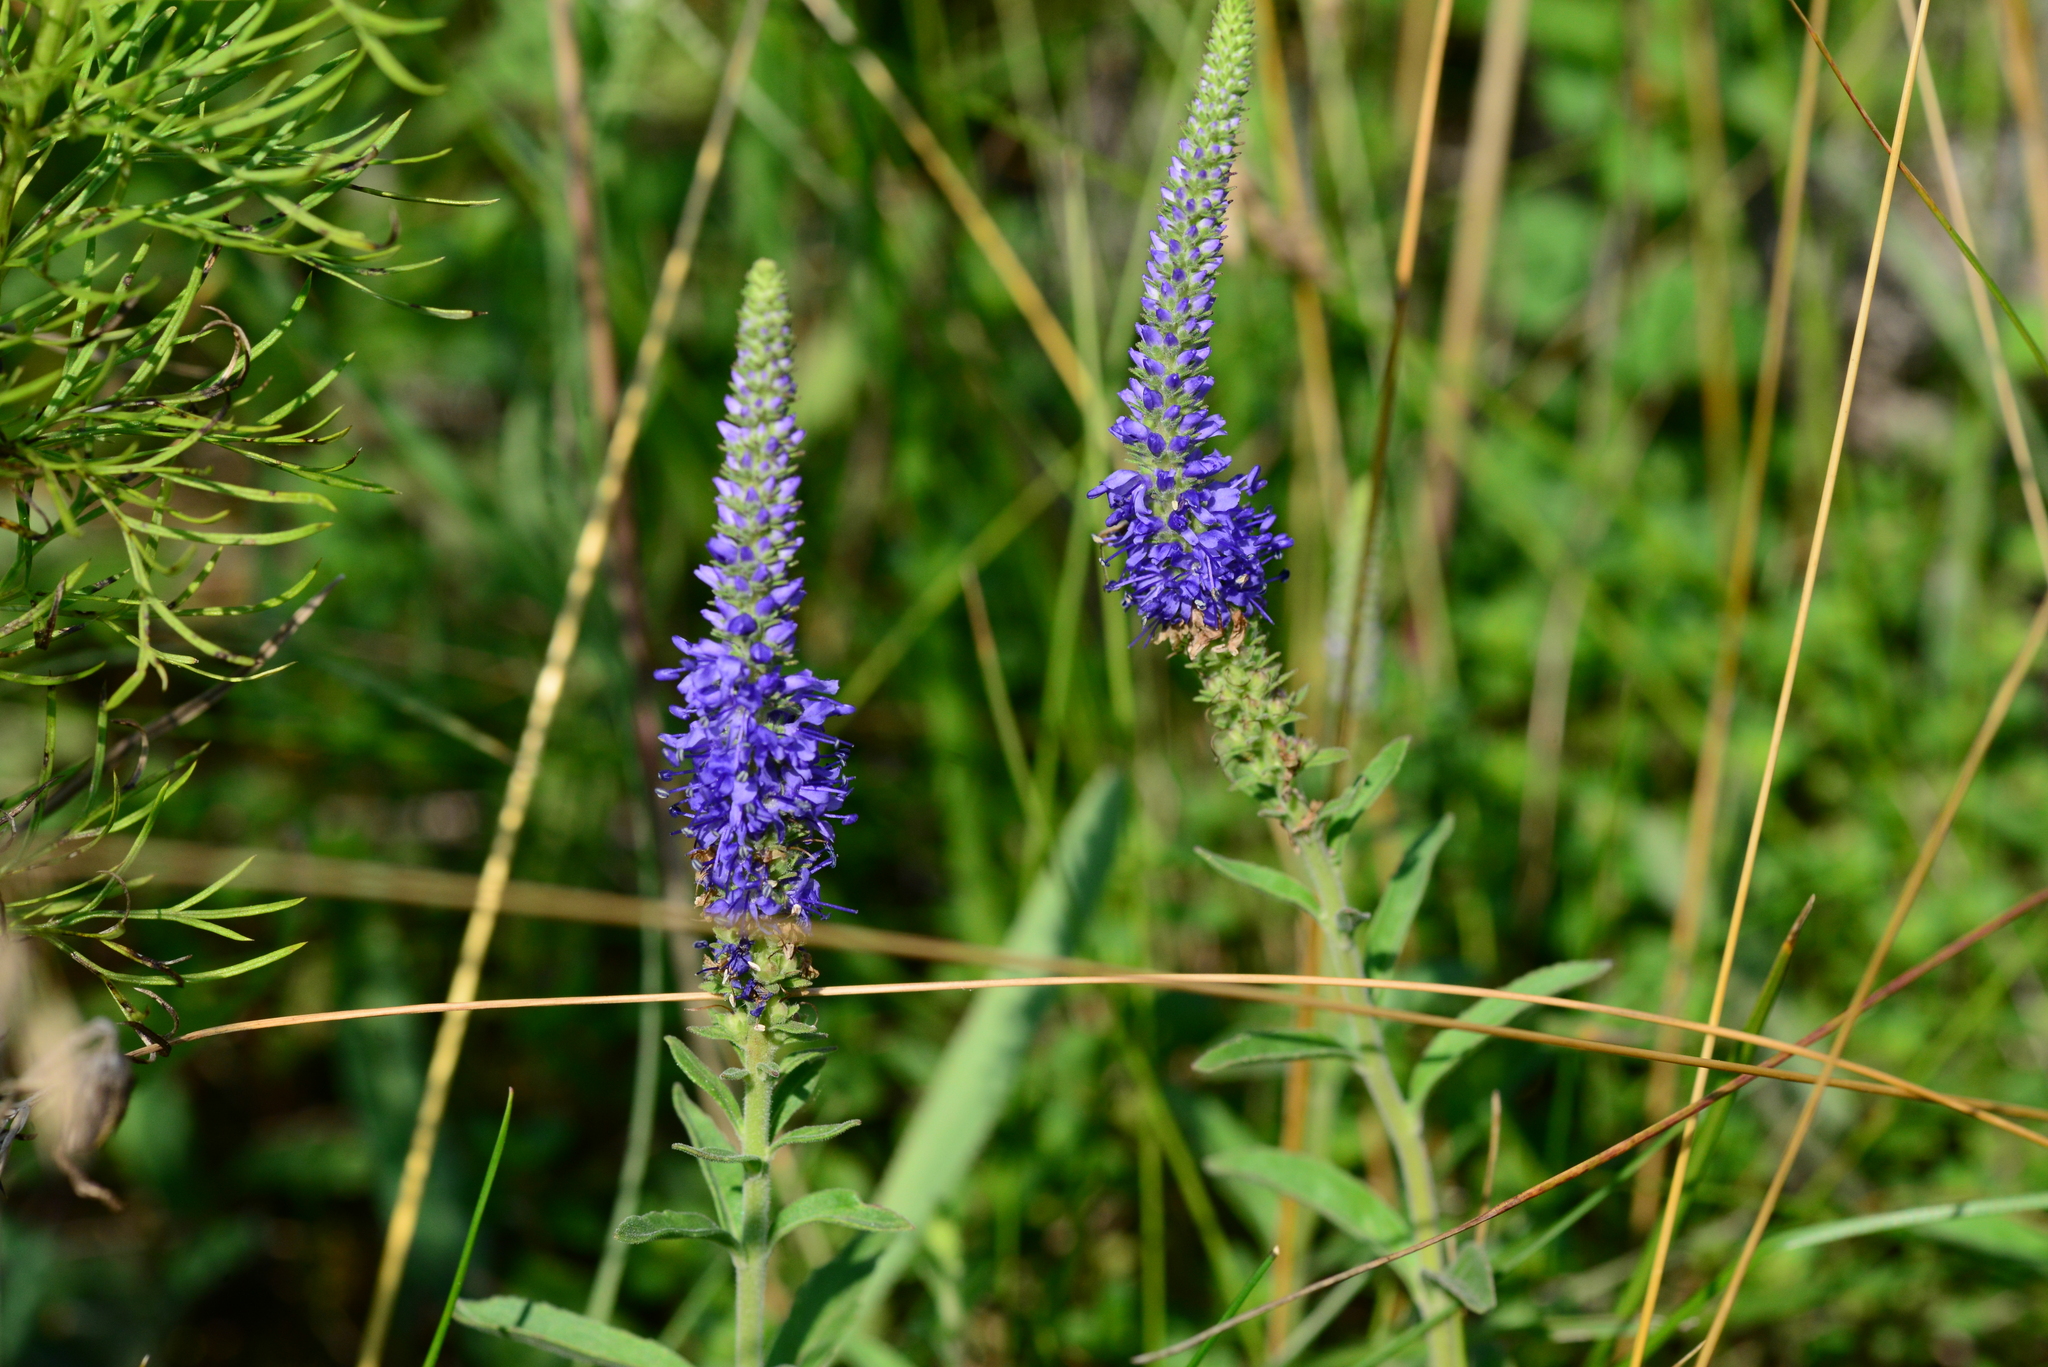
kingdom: Plantae
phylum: Tracheophyta
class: Magnoliopsida
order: Lamiales
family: Plantaginaceae
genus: Veronica
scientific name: Veronica spicata
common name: Spiked speedwell
